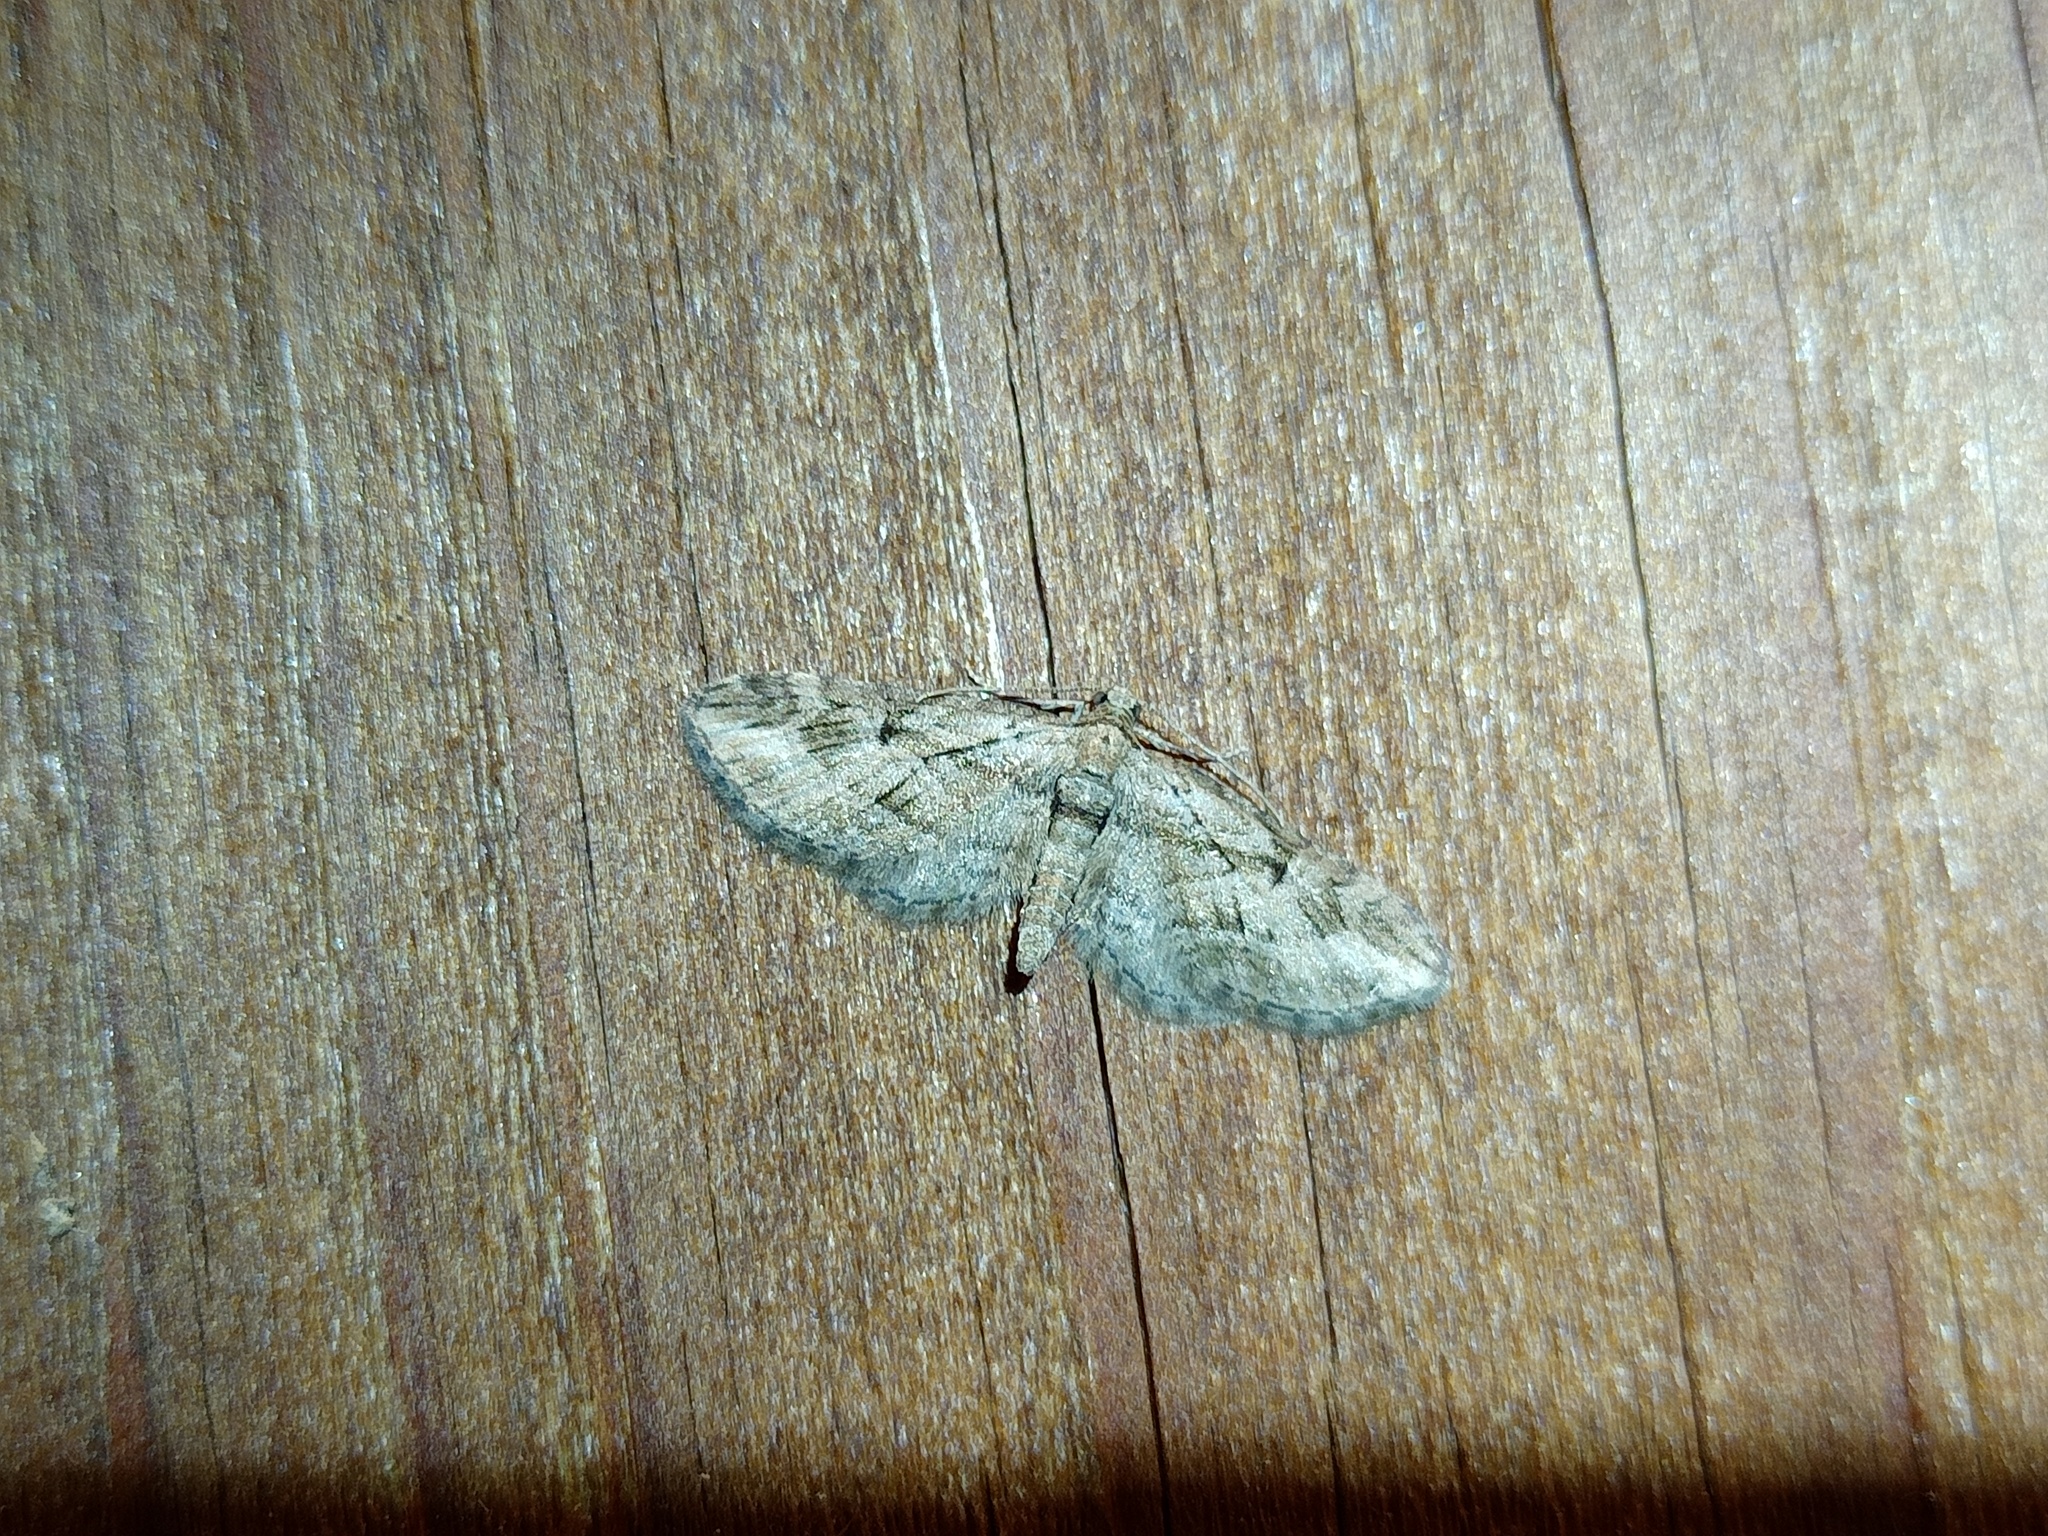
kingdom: Animalia
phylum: Arthropoda
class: Insecta
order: Lepidoptera
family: Geometridae
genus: Eupithecia
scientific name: Eupithecia ericeata
